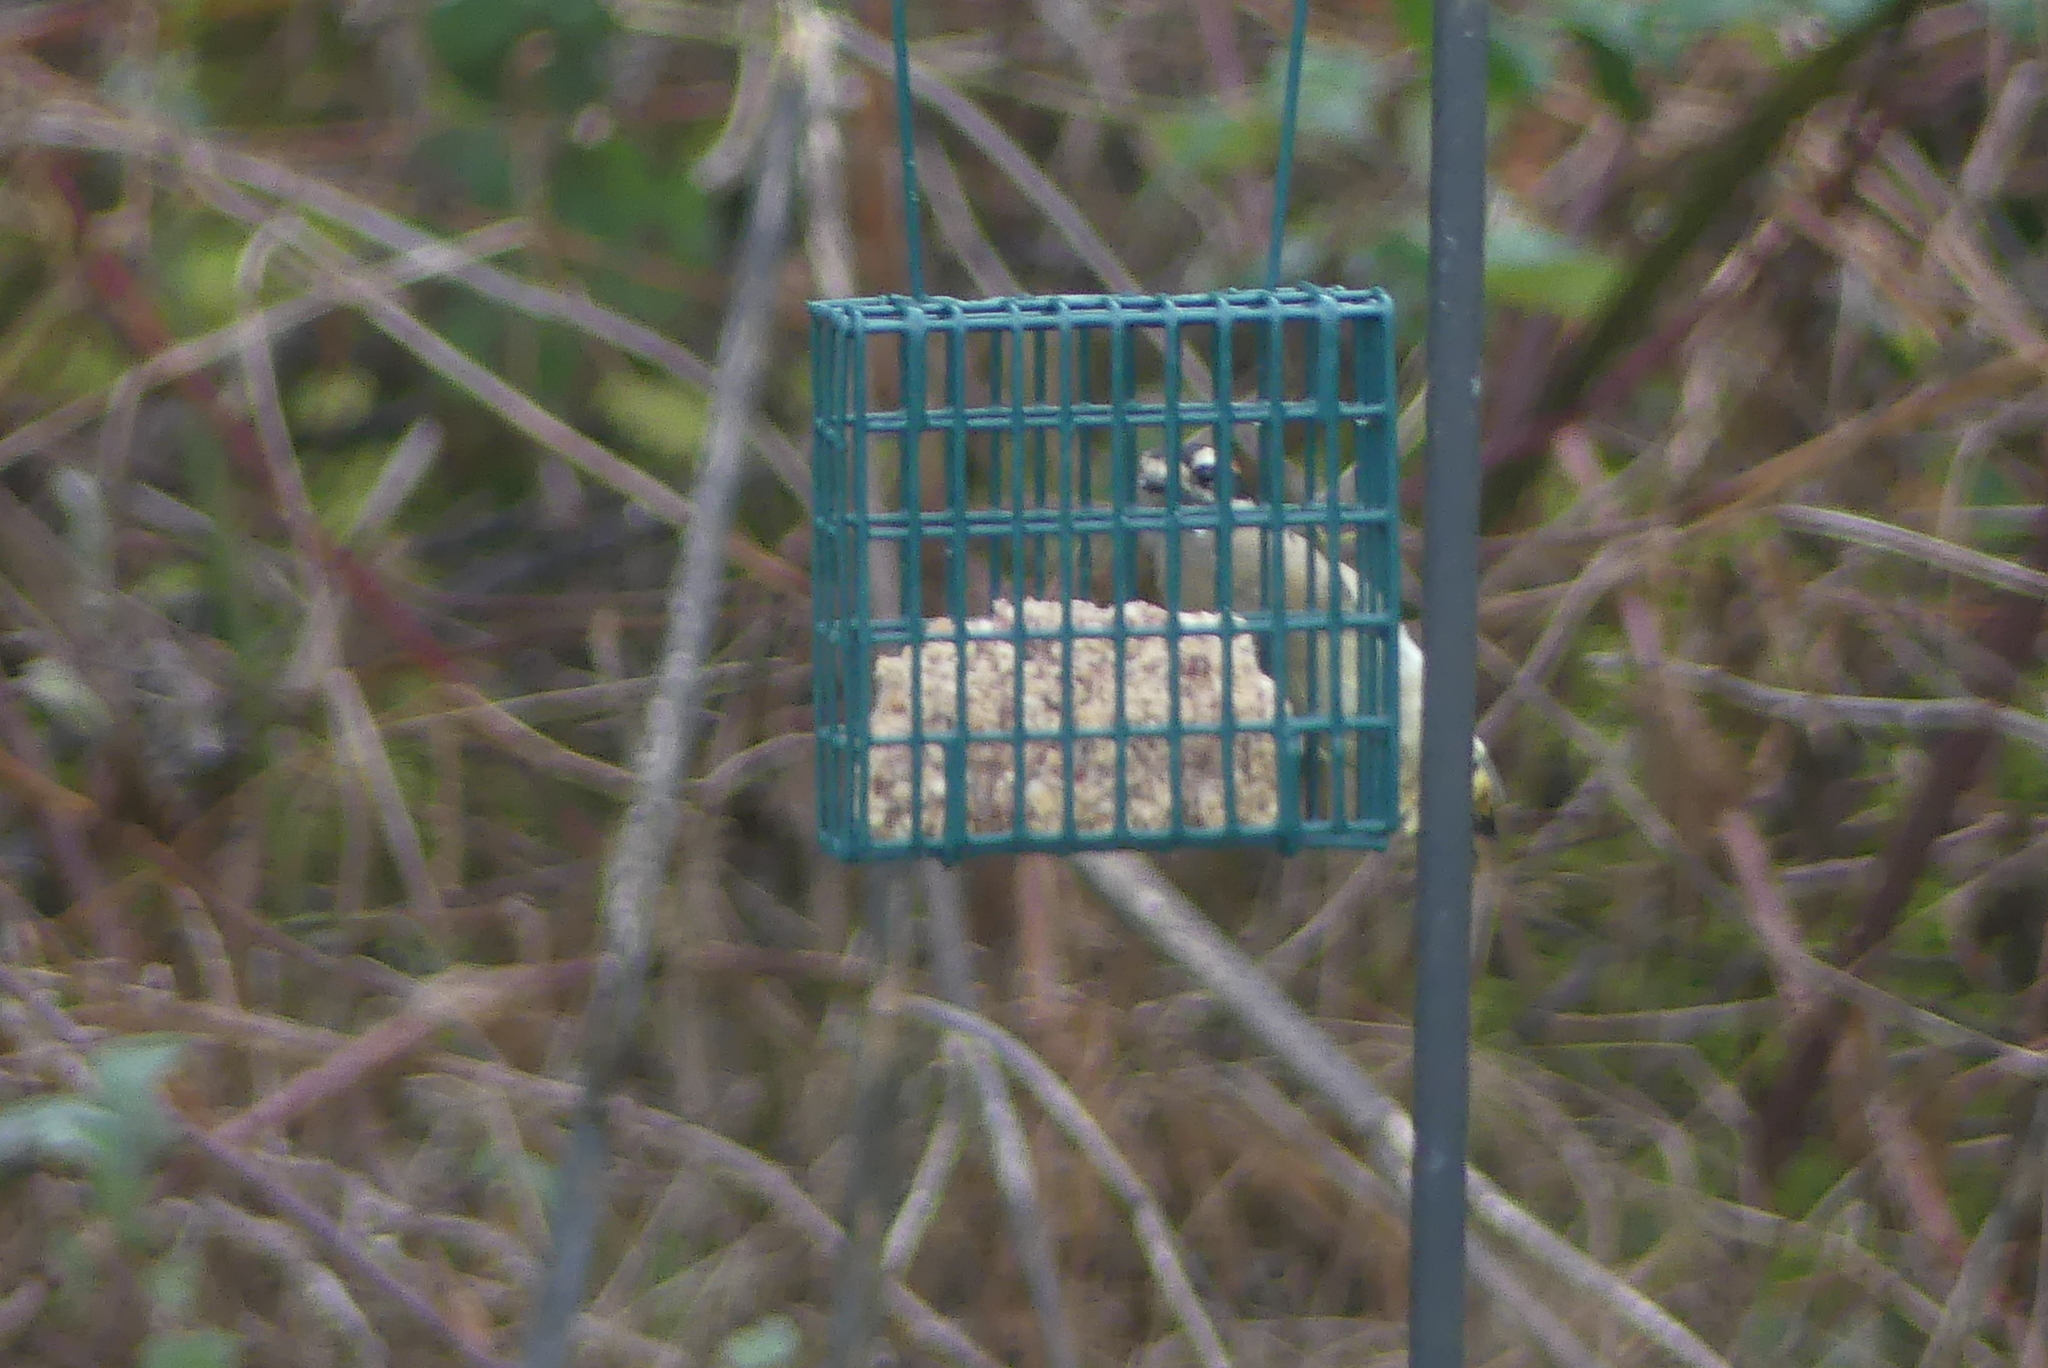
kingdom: Animalia
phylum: Chordata
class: Aves
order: Piciformes
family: Picidae
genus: Dryobates
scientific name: Dryobates pubescens
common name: Downy woodpecker
